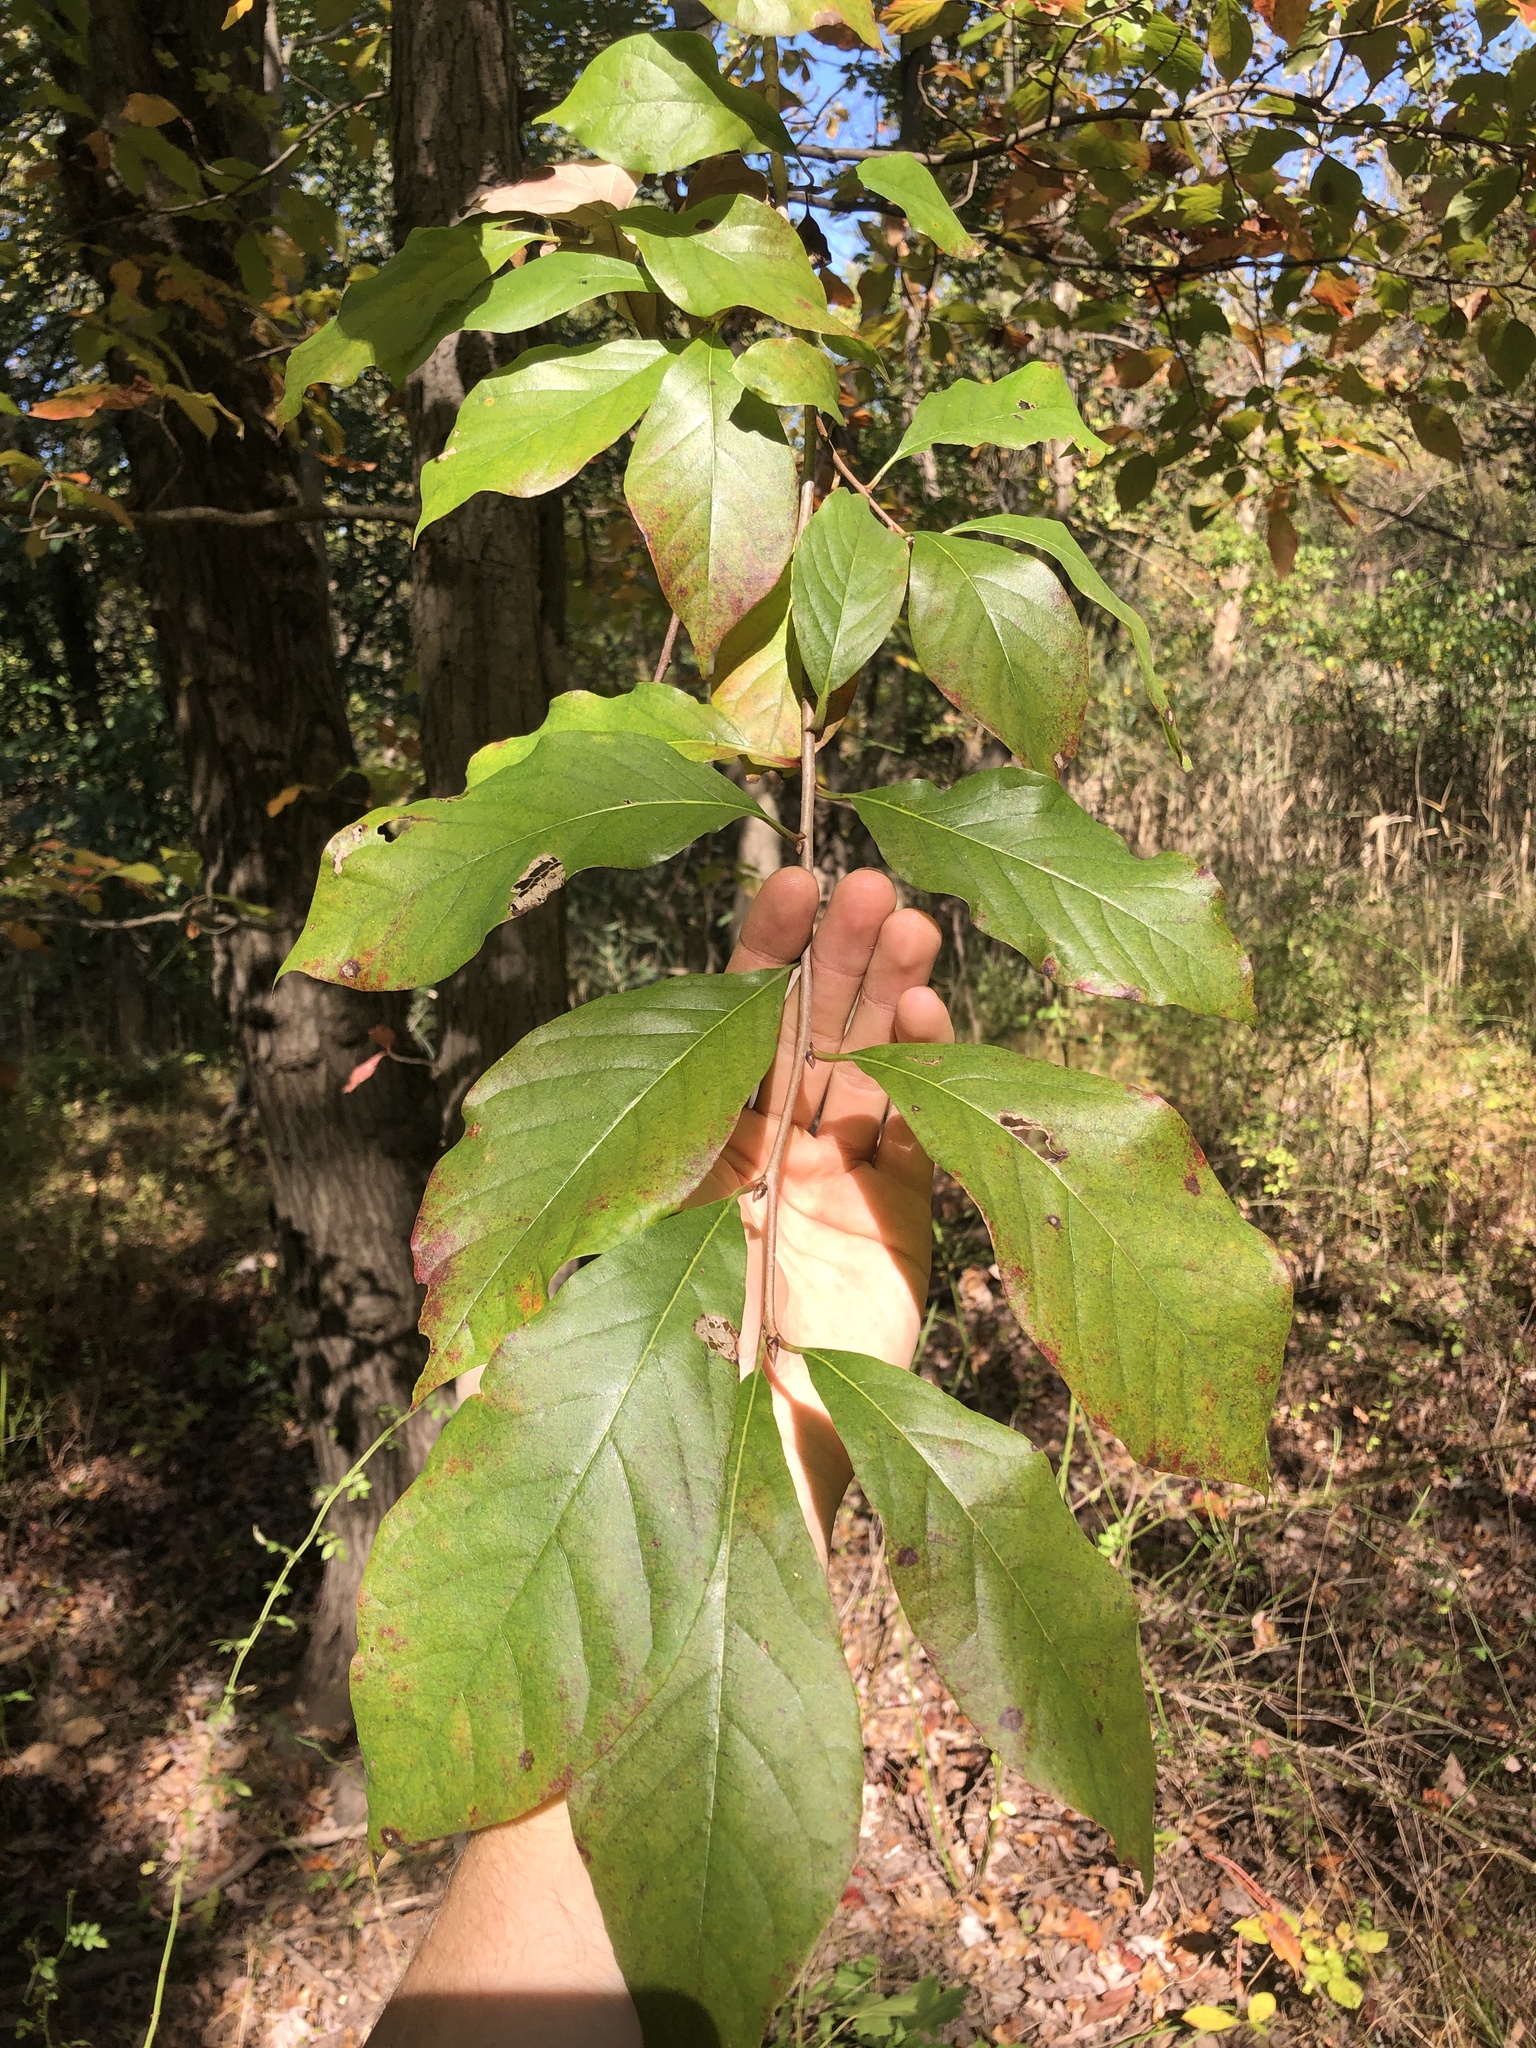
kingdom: Plantae
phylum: Tracheophyta
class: Magnoliopsida
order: Cornales
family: Nyssaceae
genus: Nyssa
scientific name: Nyssa sylvatica
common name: Black tupelo
